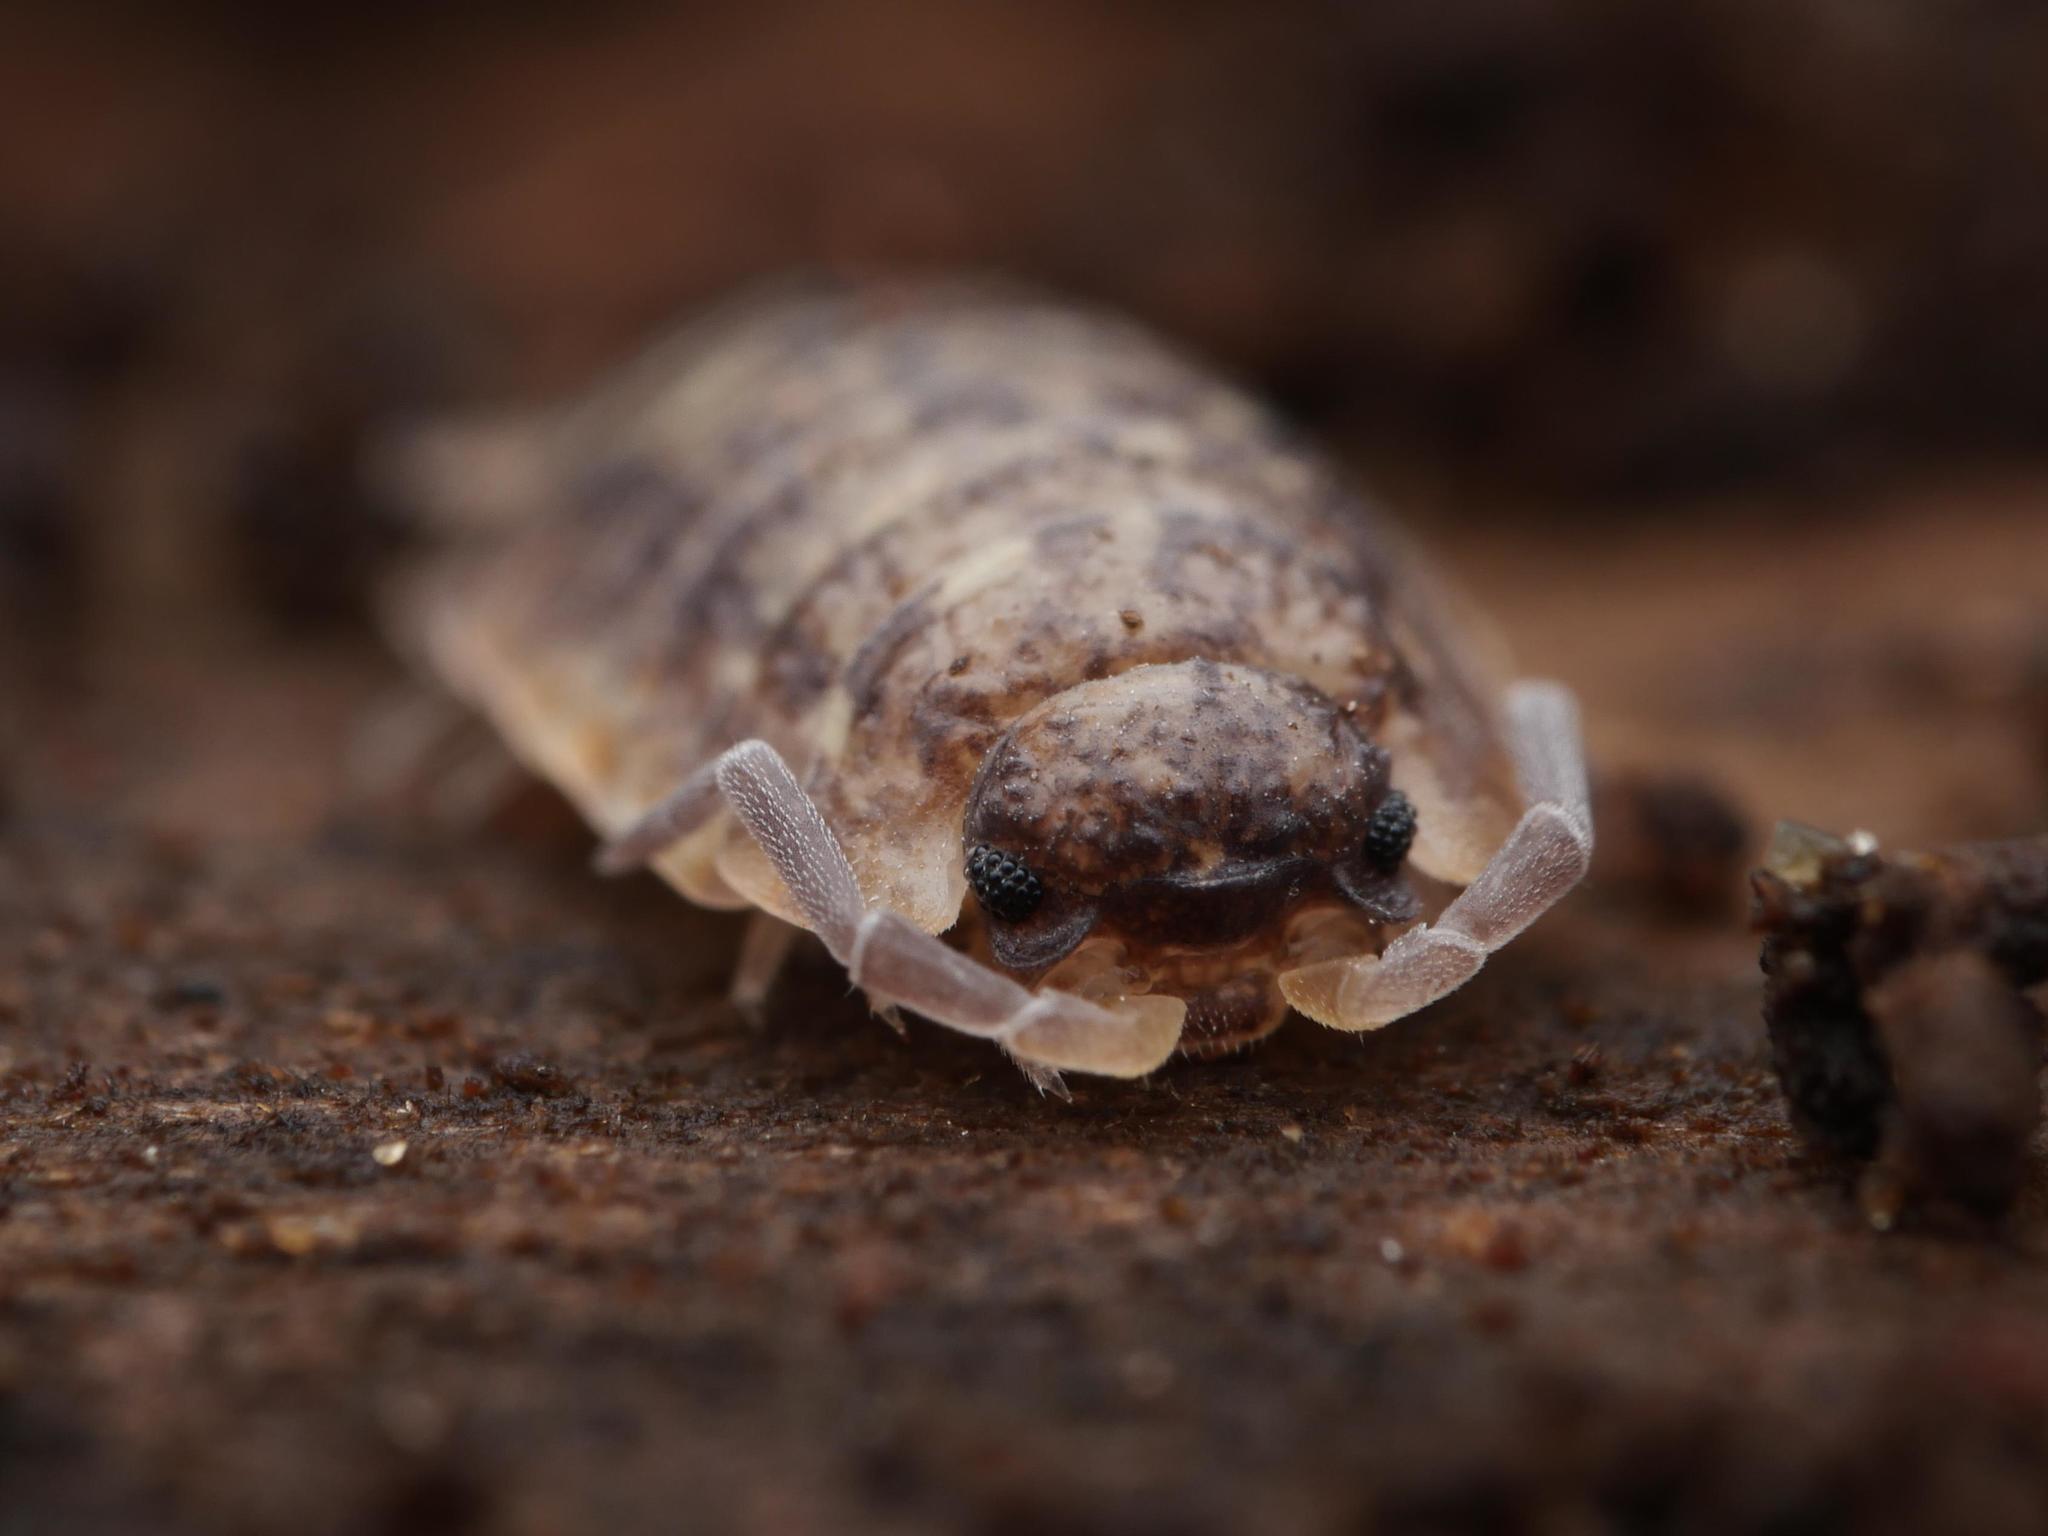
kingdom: Animalia
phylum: Arthropoda
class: Malacostraca
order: Isopoda
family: Porcellionidae
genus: Porcellio
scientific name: Porcellio scaber
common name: Common rough woodlouse
